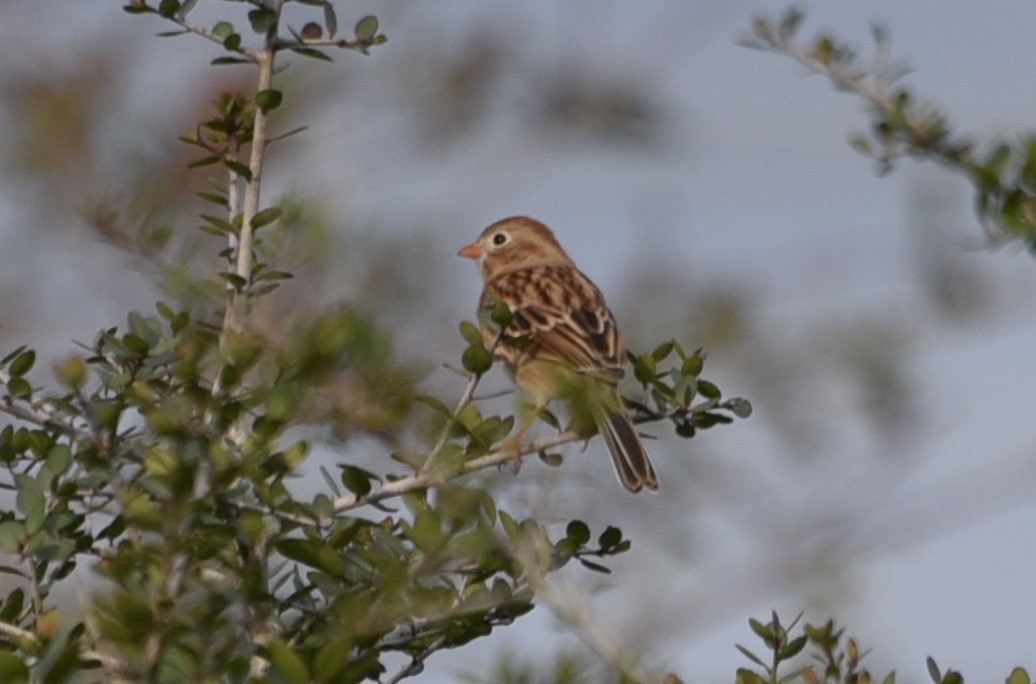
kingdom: Animalia
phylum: Chordata
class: Aves
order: Passeriformes
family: Passerellidae
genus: Spizella
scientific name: Spizella pusilla
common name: Field sparrow
